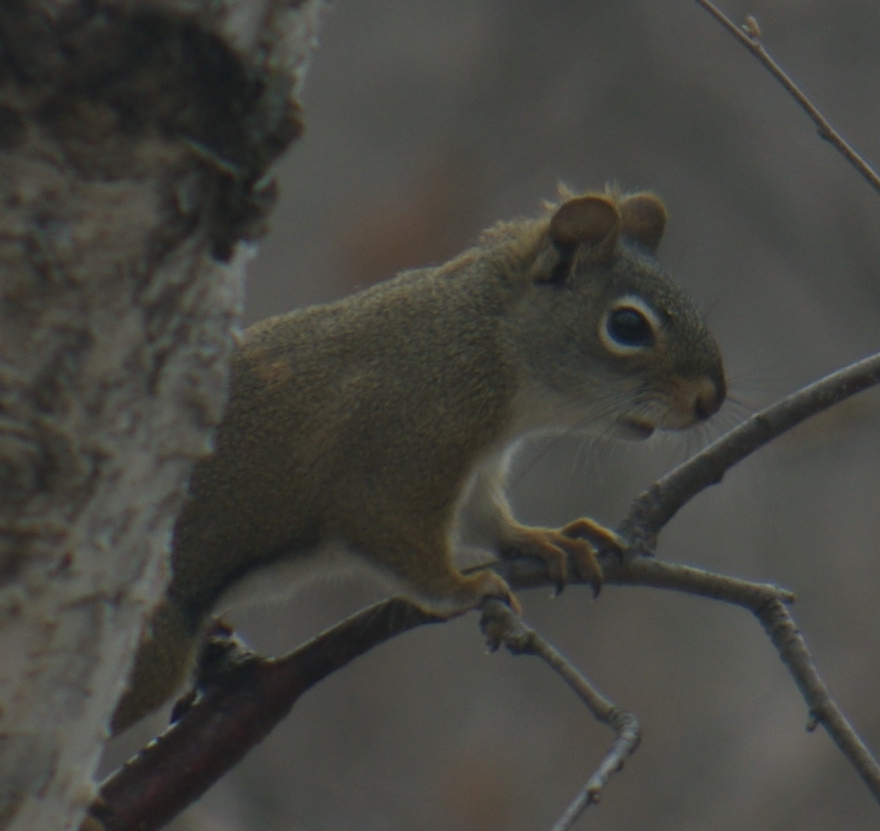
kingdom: Animalia
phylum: Chordata
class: Mammalia
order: Rodentia
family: Sciuridae
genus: Tamiasciurus
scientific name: Tamiasciurus hudsonicus
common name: Red squirrel
